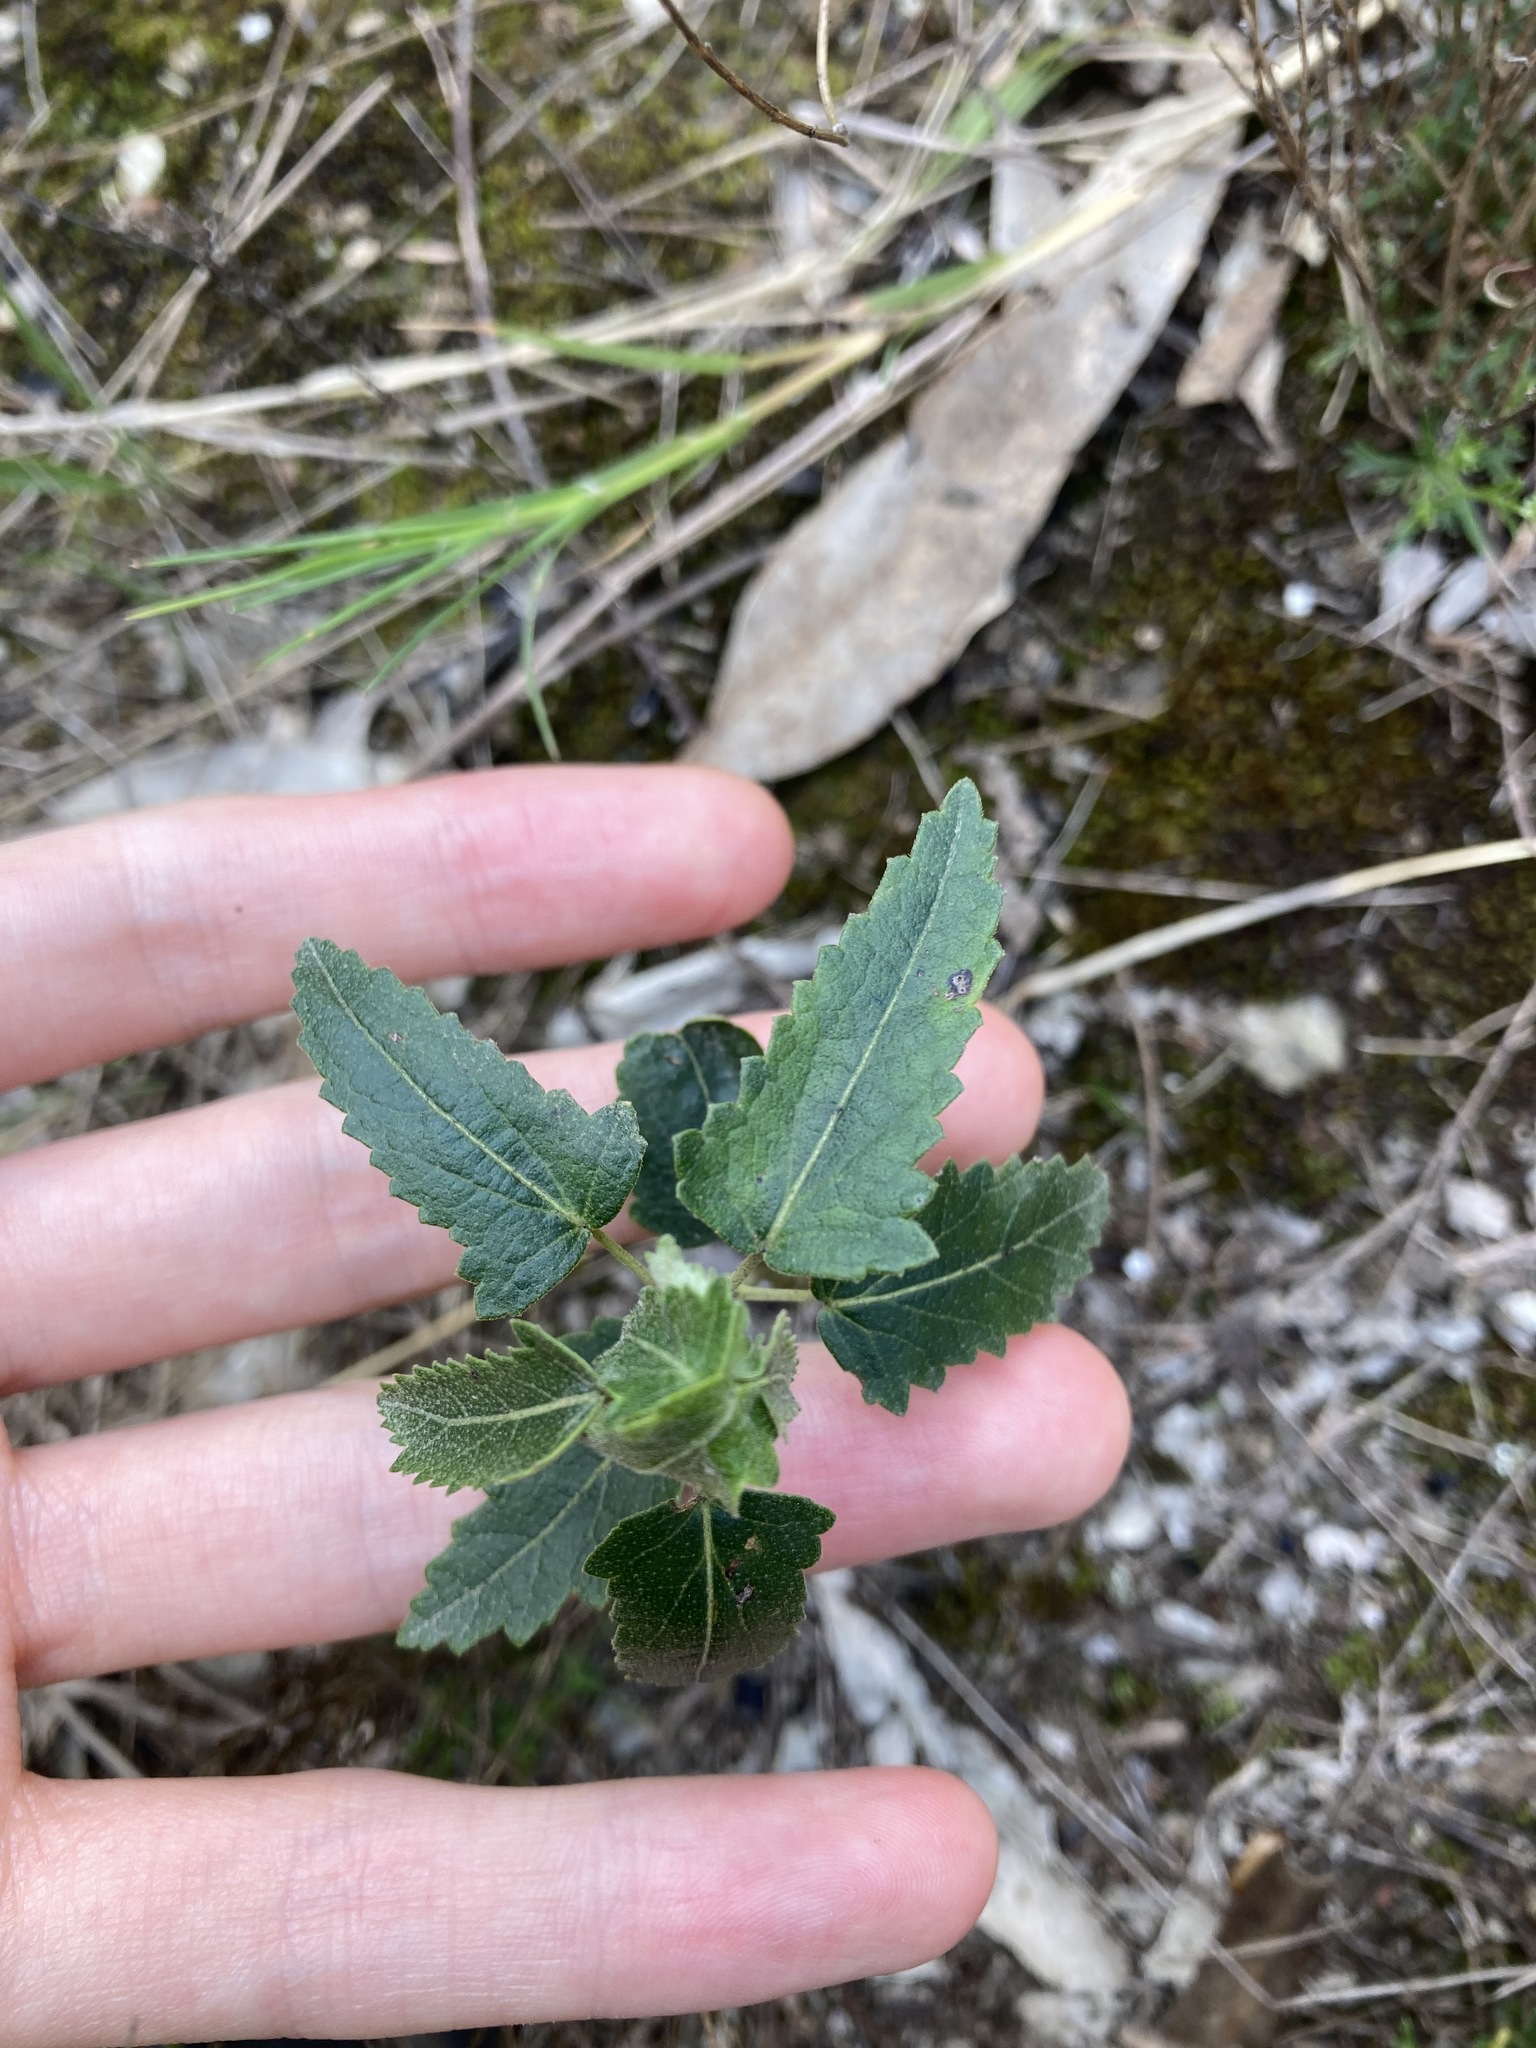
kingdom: Plantae
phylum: Tracheophyta
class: Magnoliopsida
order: Malvales
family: Malvaceae
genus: Pavonia
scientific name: Pavonia hastata
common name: Spearleaf swampmallow
